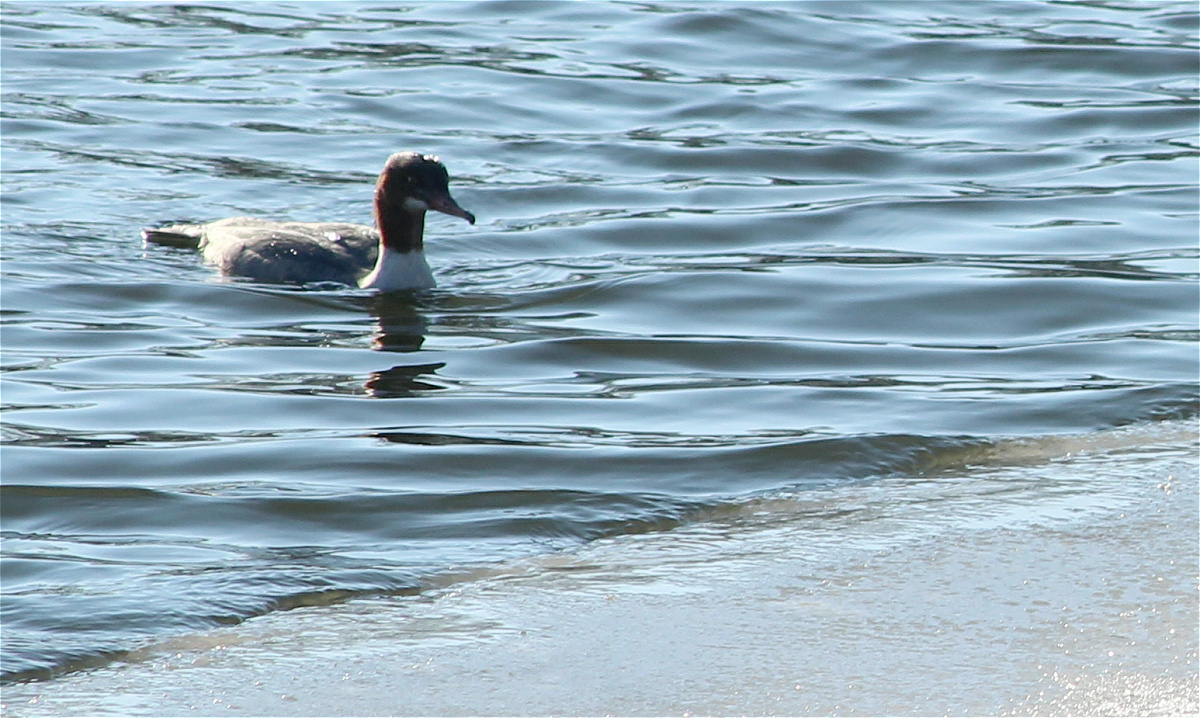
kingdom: Animalia
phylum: Chordata
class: Aves
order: Anseriformes
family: Anatidae
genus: Mergus
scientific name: Mergus merganser
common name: Common merganser
